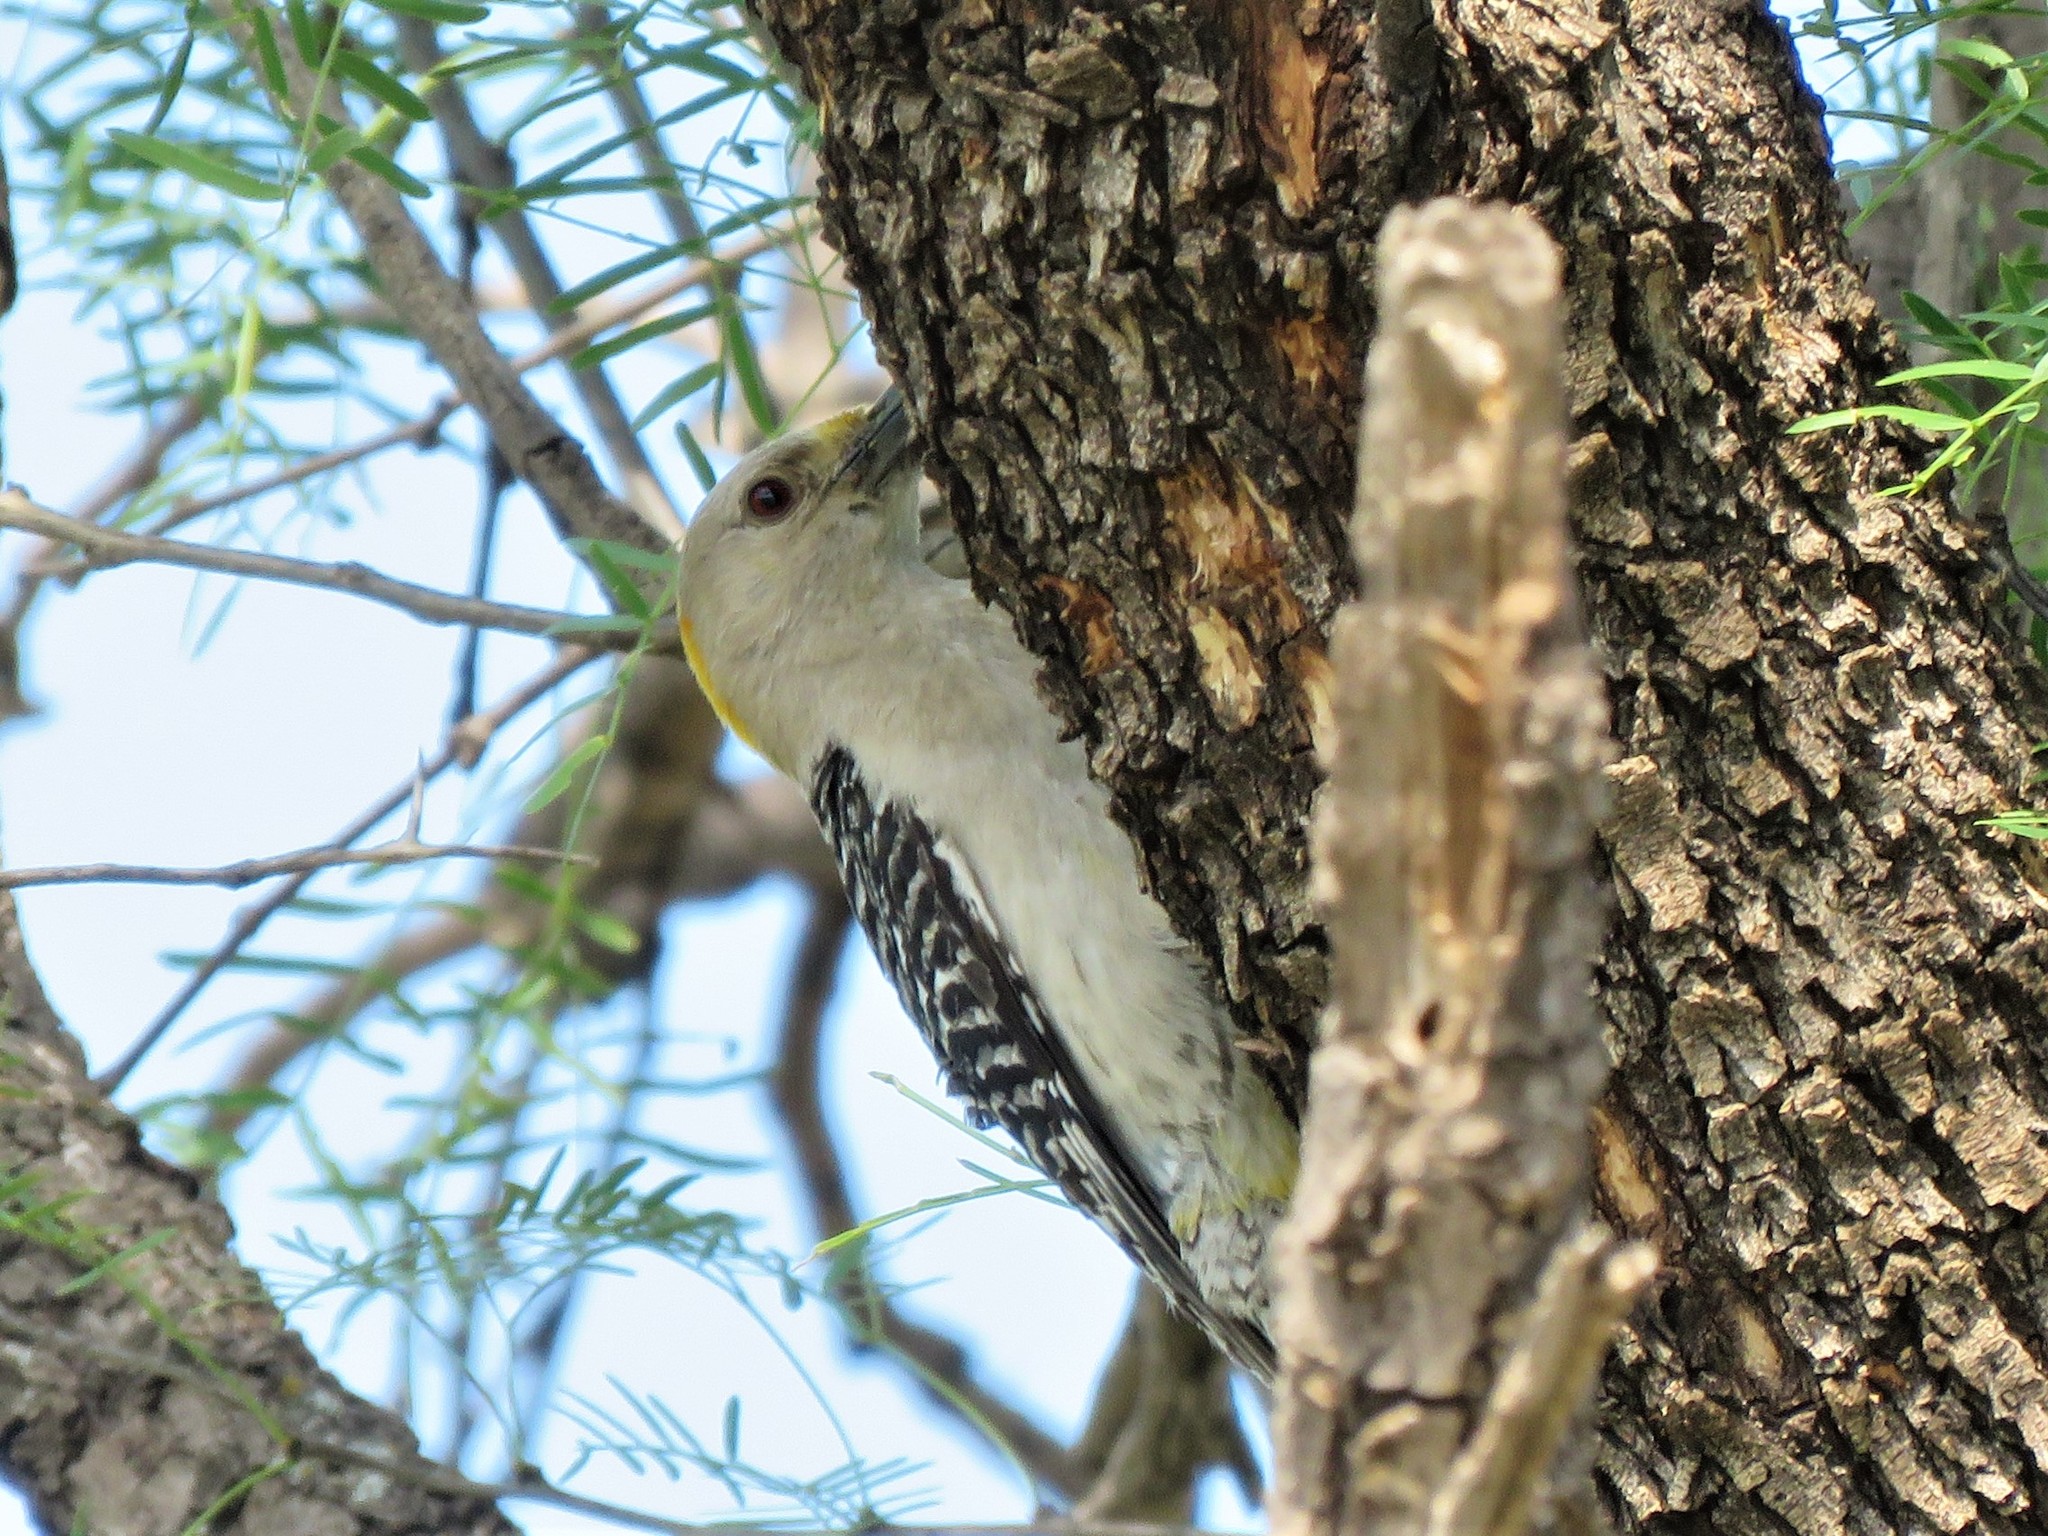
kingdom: Animalia
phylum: Chordata
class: Aves
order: Piciformes
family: Picidae
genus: Melanerpes
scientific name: Melanerpes aurifrons
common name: Golden-fronted woodpecker
